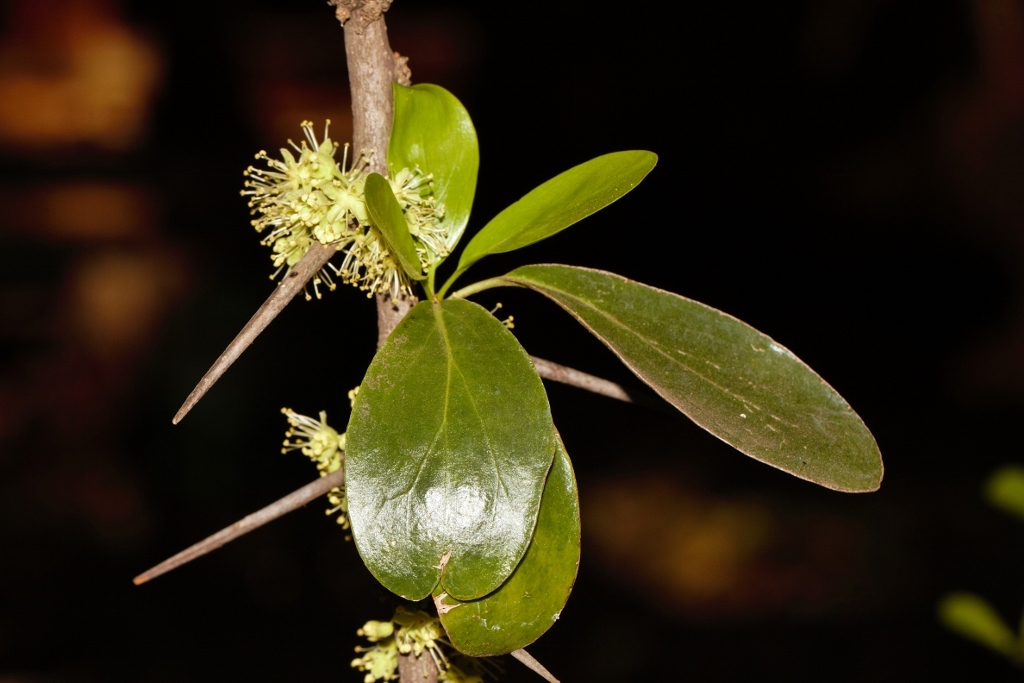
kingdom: Plantae
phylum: Tracheophyta
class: Magnoliopsida
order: Malpighiales
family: Salicaceae
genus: Dovyalis
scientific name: Dovyalis caffra
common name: Kei-apple
